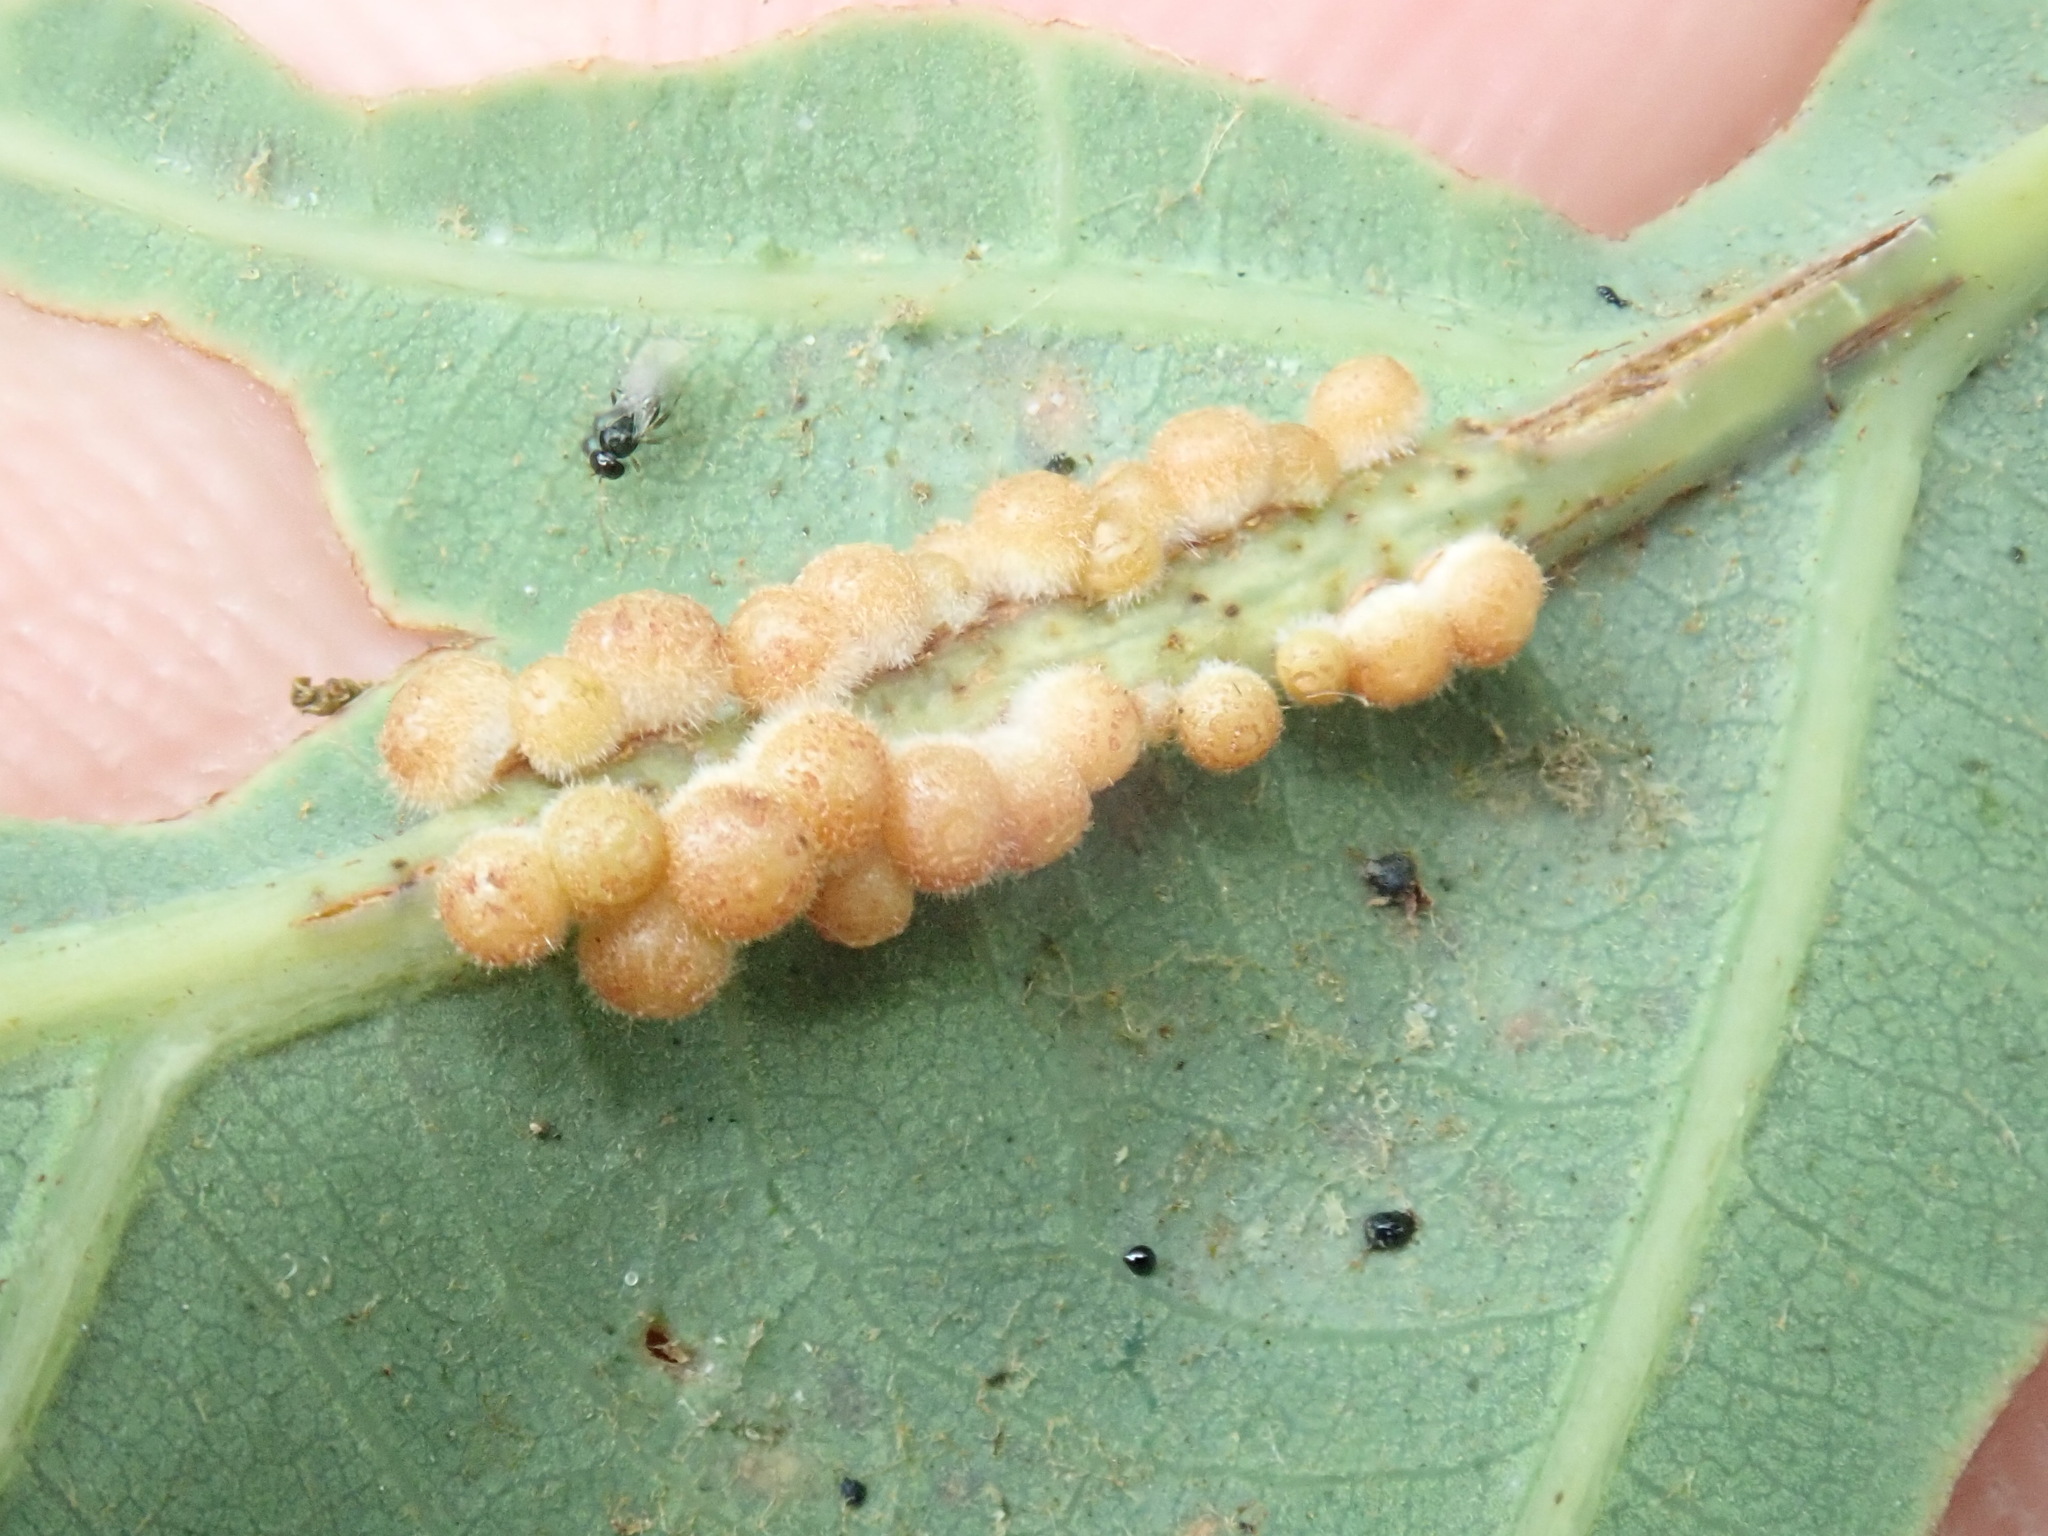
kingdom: Animalia
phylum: Arthropoda
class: Insecta
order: Hymenoptera
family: Cynipidae
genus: Andricus
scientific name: Andricus
